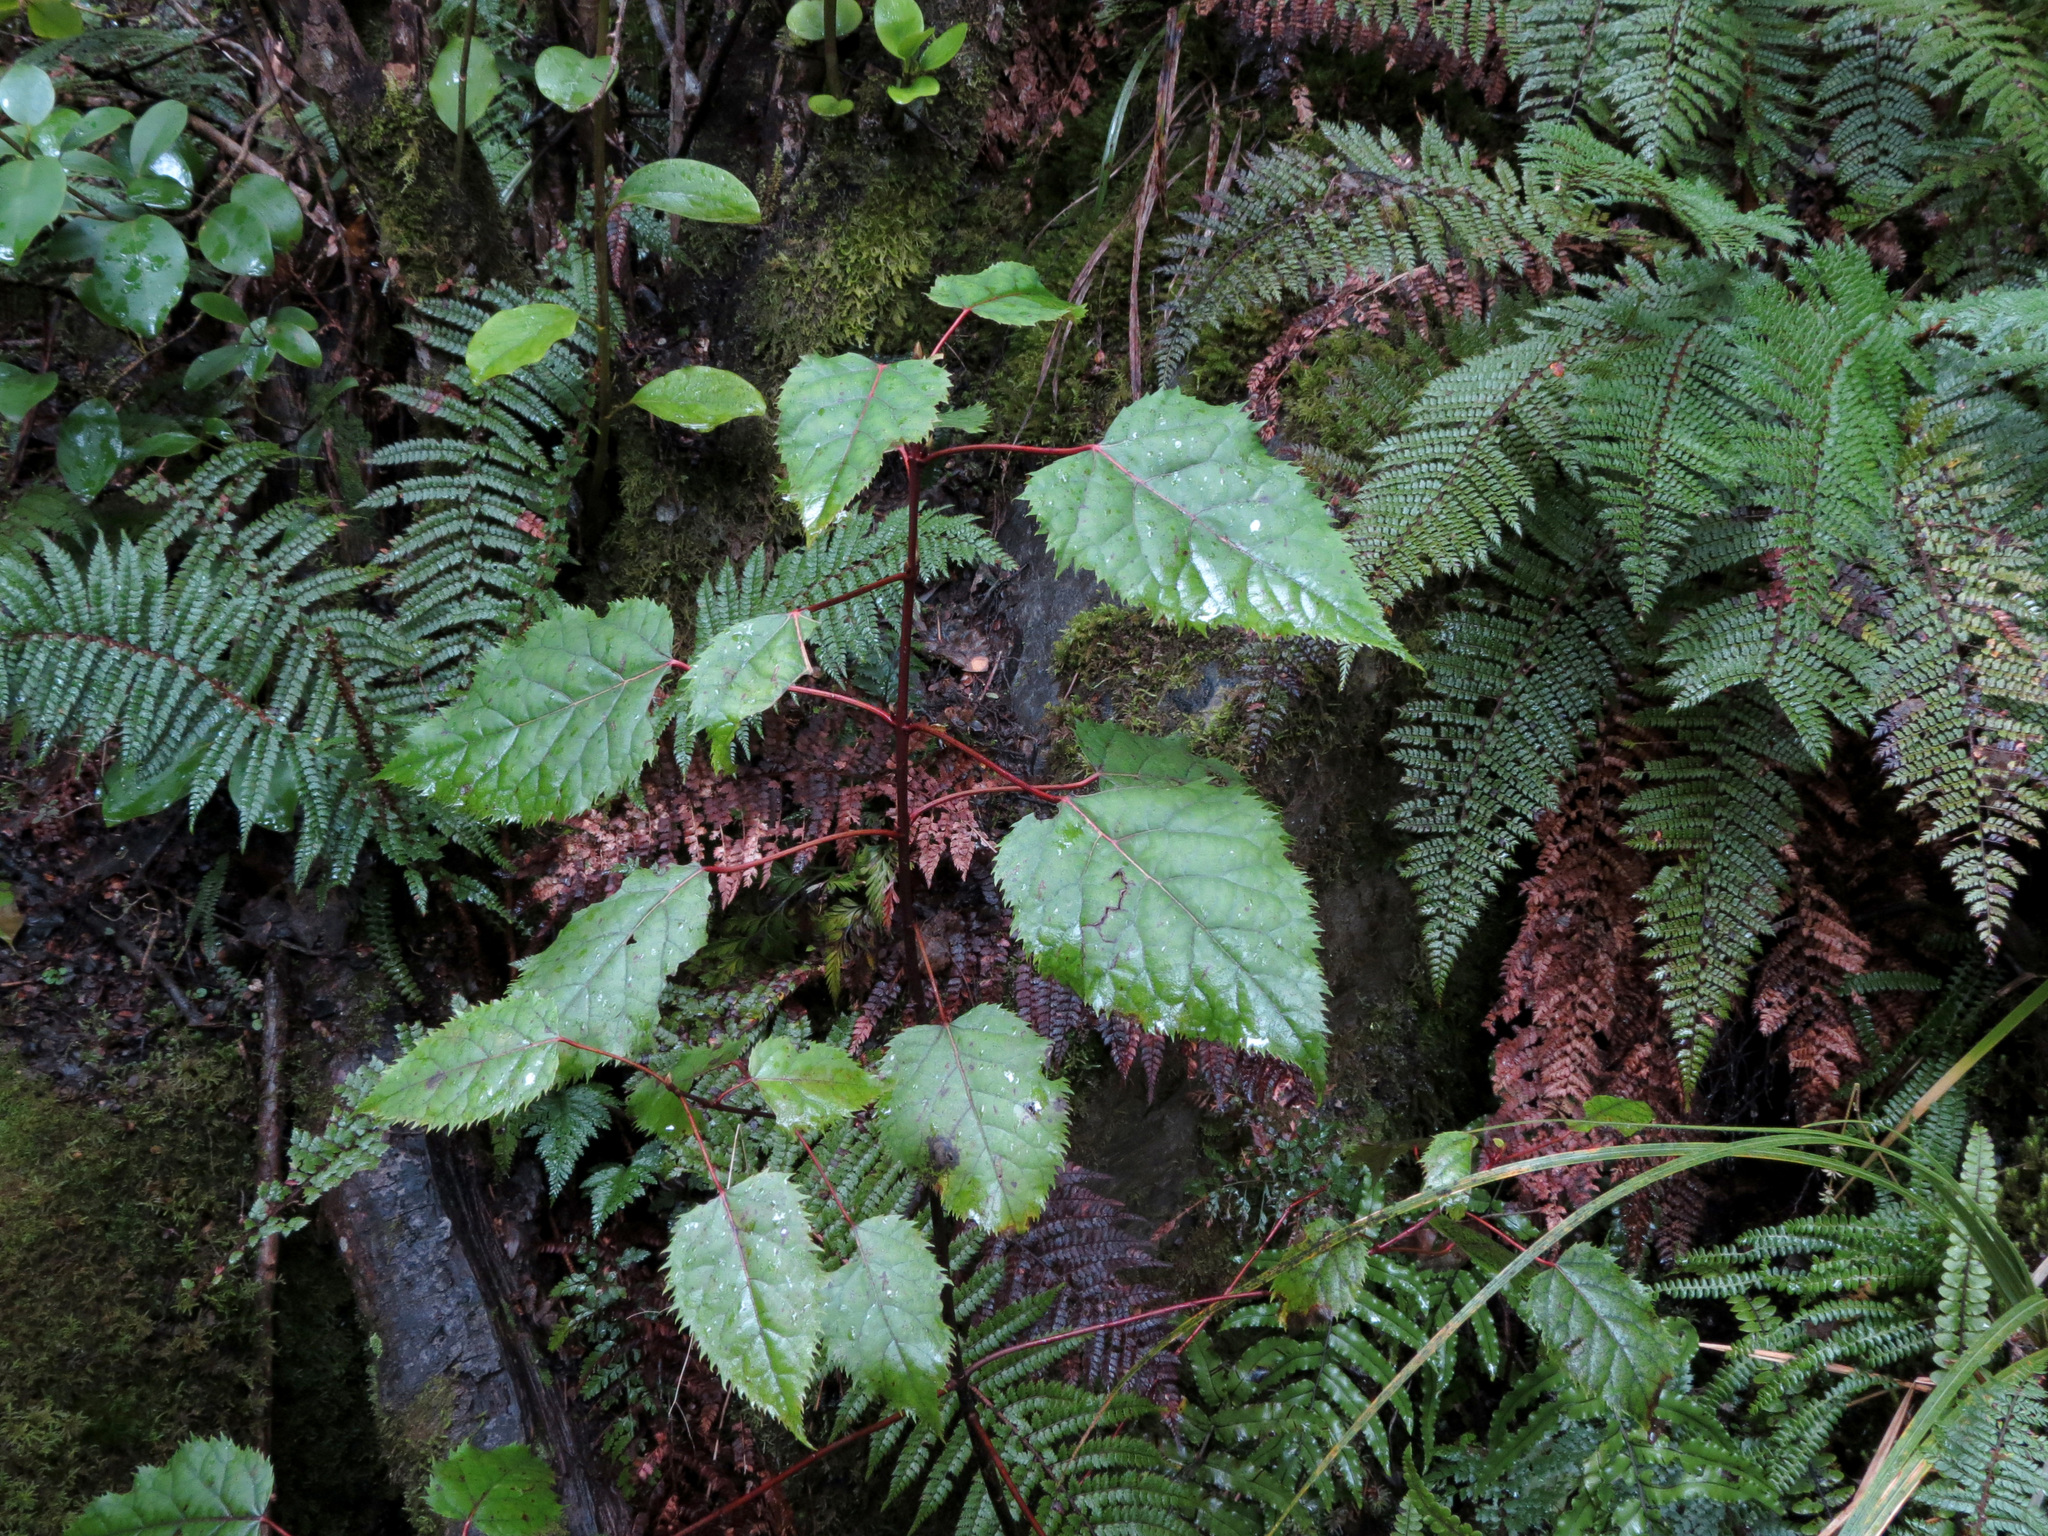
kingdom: Plantae
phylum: Tracheophyta
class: Magnoliopsida
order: Oxalidales
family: Elaeocarpaceae
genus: Aristotelia
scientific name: Aristotelia serrata
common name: New zealand wineberry
